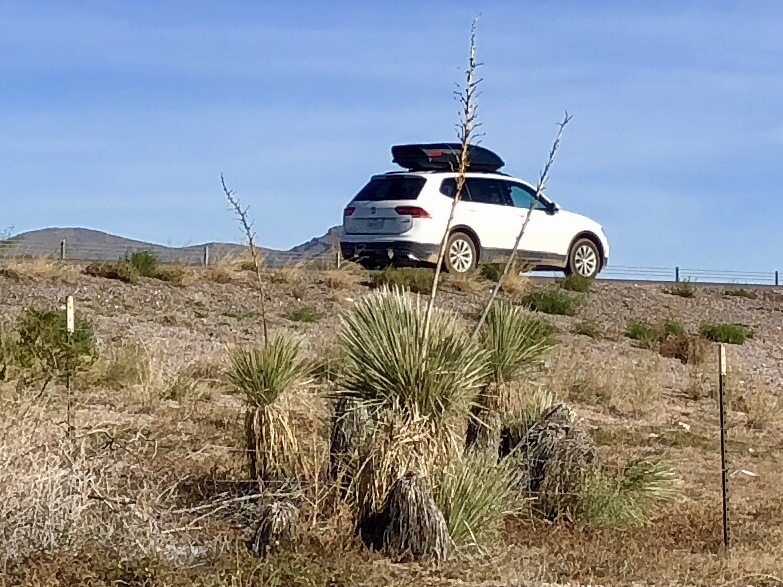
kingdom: Plantae
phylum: Tracheophyta
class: Liliopsida
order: Asparagales
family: Asparagaceae
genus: Yucca
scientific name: Yucca elata
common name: Palmella
